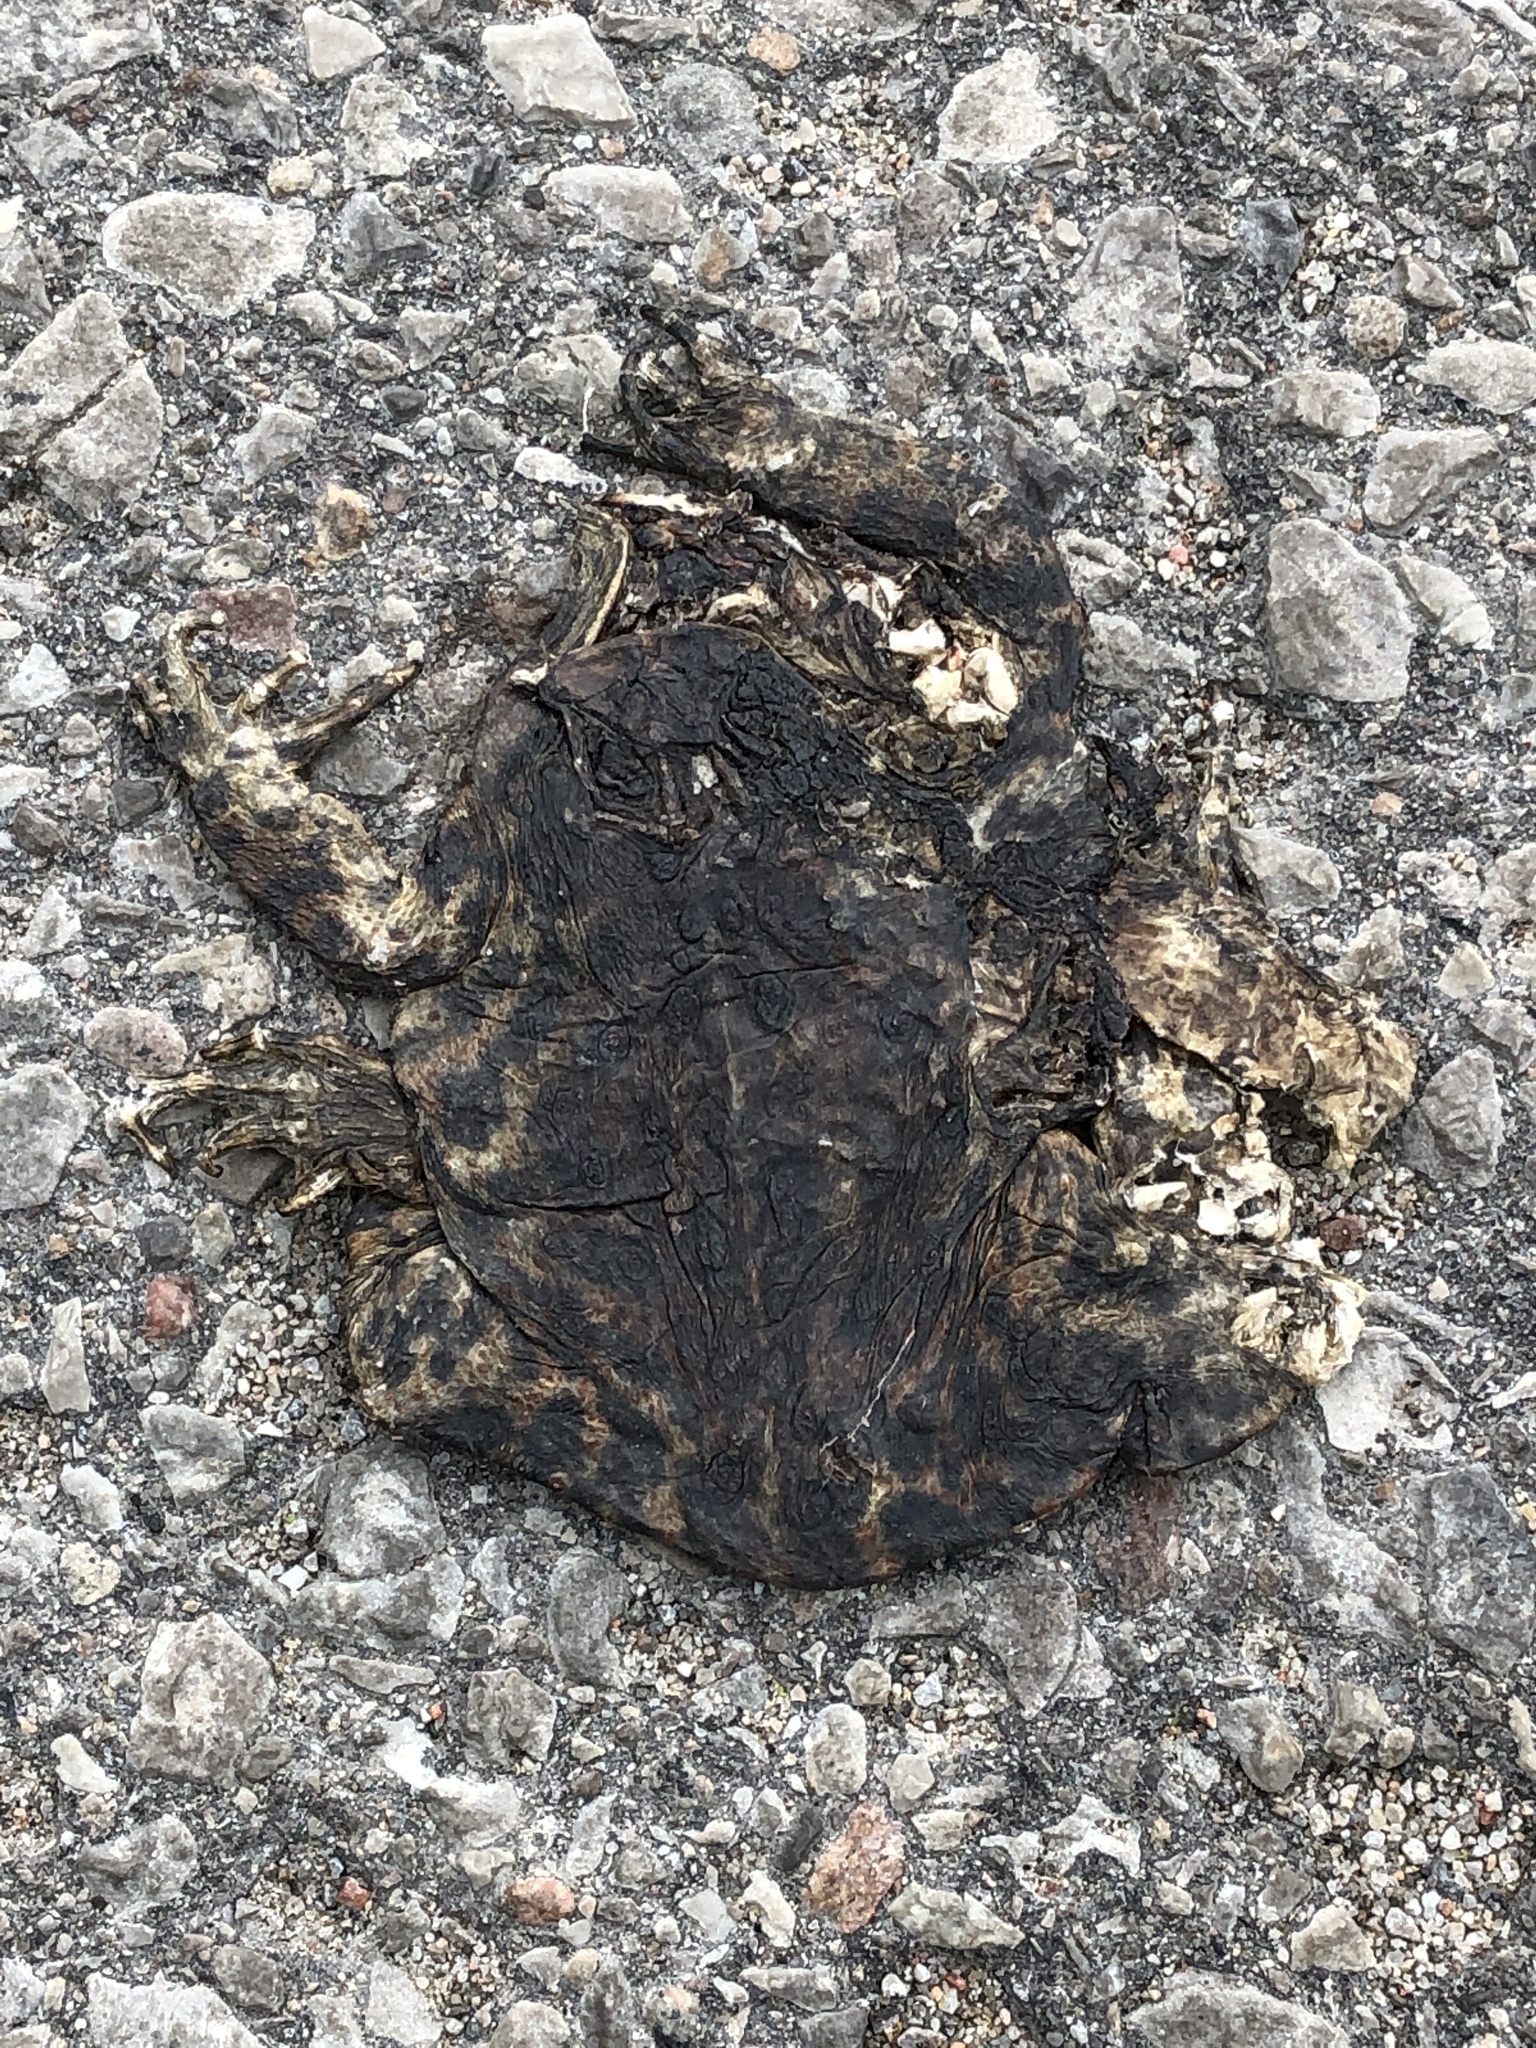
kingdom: Animalia
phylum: Chordata
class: Amphibia
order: Anura
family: Bufonidae
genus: Anaxyrus
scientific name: Anaxyrus americanus
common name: American toad
